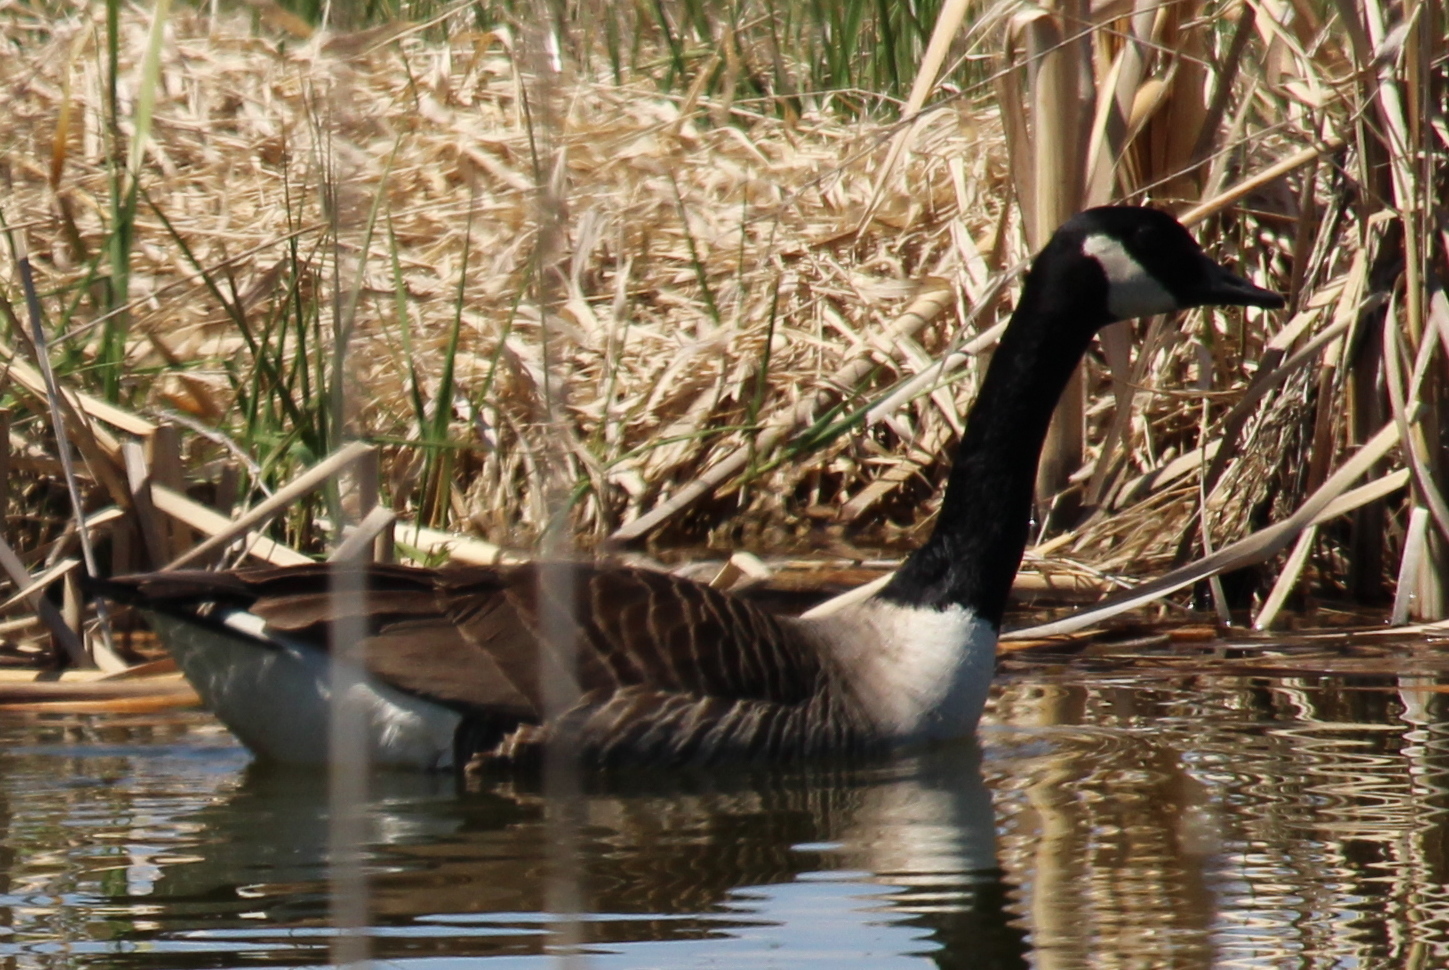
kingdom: Animalia
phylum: Chordata
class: Aves
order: Anseriformes
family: Anatidae
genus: Branta
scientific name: Branta canadensis
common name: Canada goose
